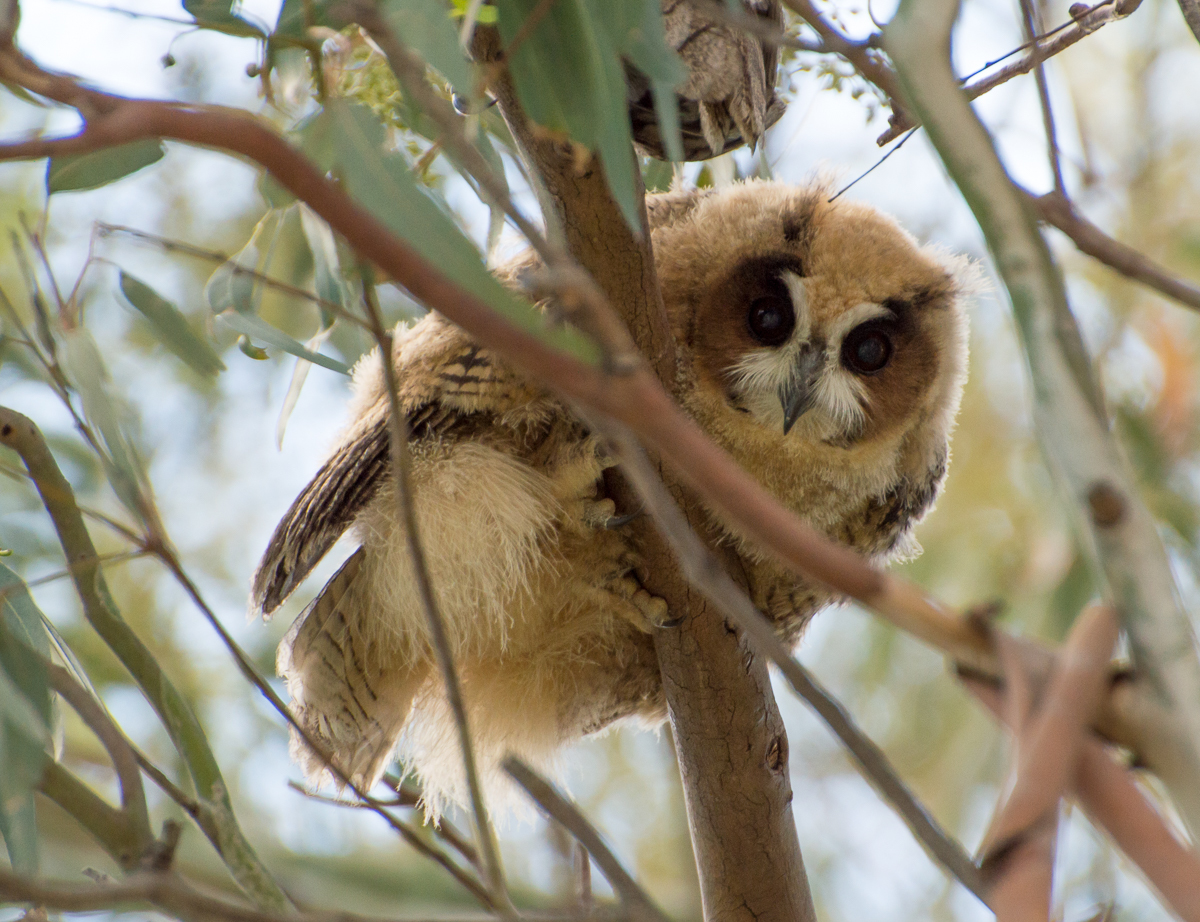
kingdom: Animalia
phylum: Chordata
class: Aves
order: Strigiformes
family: Strigidae
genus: Pseudoscops
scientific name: Pseudoscops clamator
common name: Striped owl
